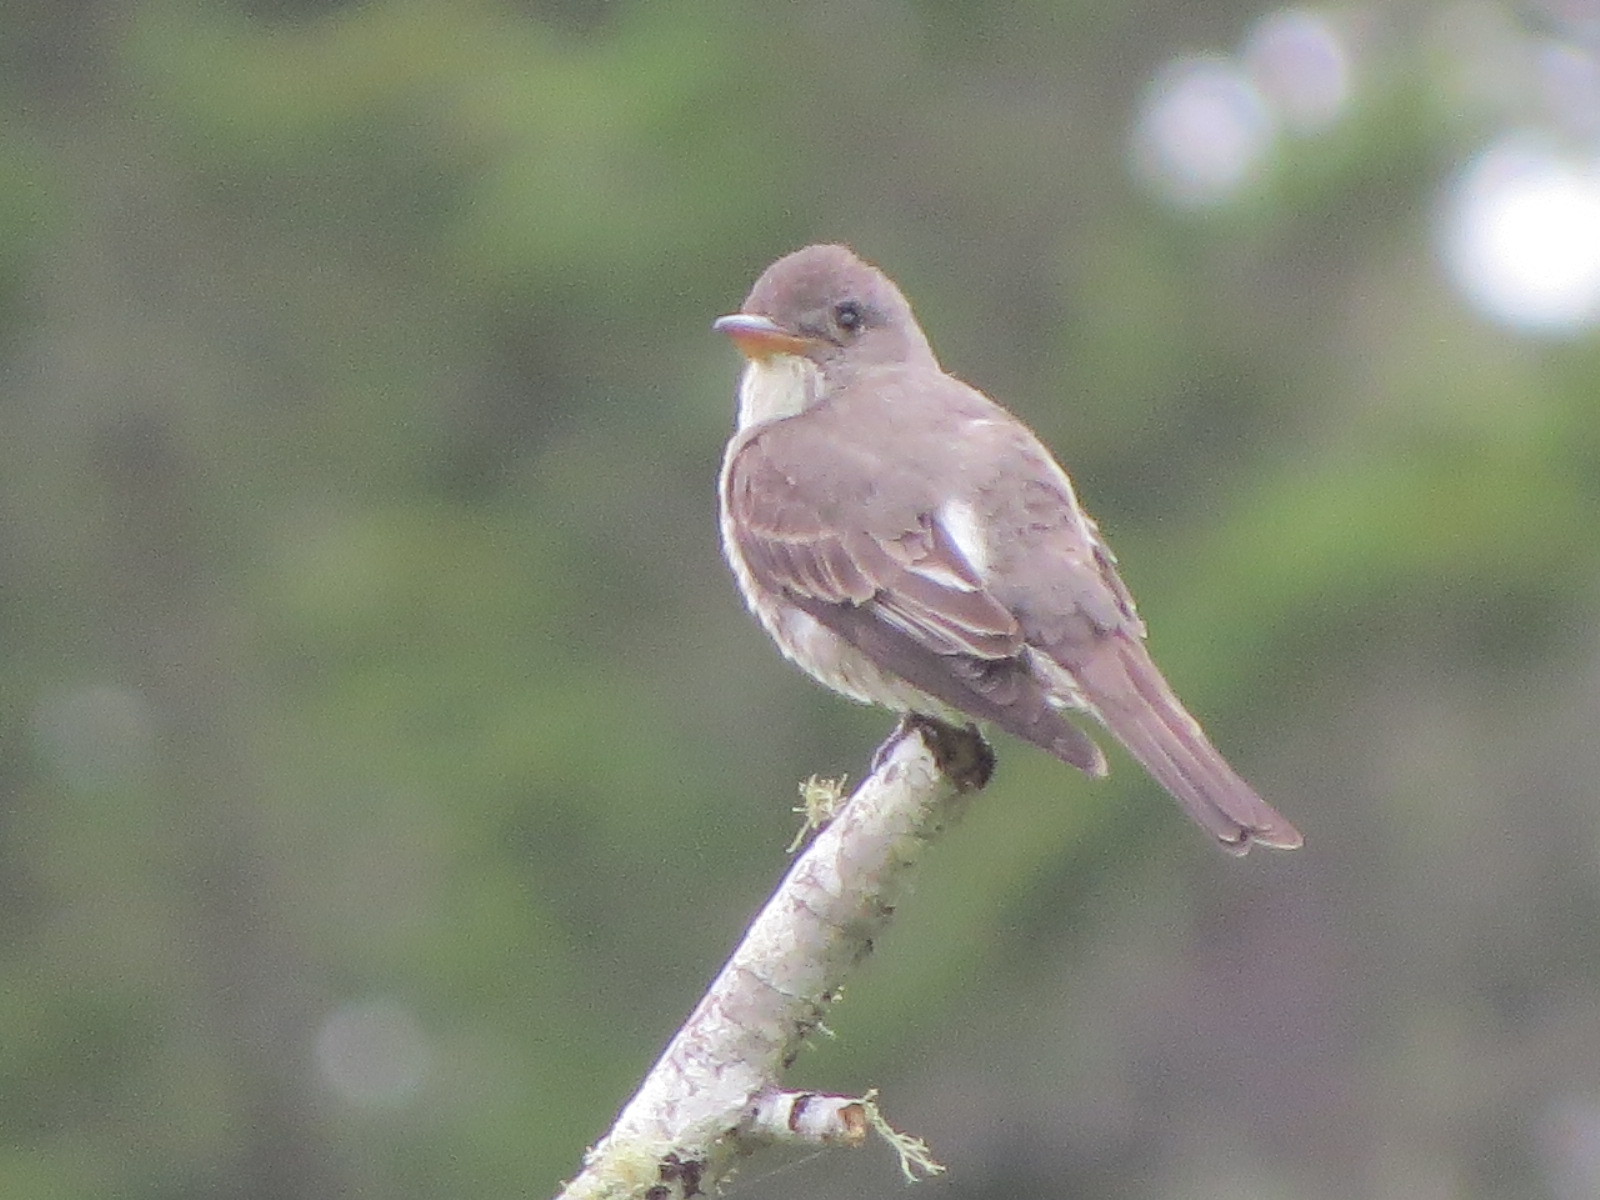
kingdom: Animalia
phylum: Chordata
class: Aves
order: Passeriformes
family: Tyrannidae
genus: Contopus
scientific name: Contopus cooperi
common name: Olive-sided flycatcher
